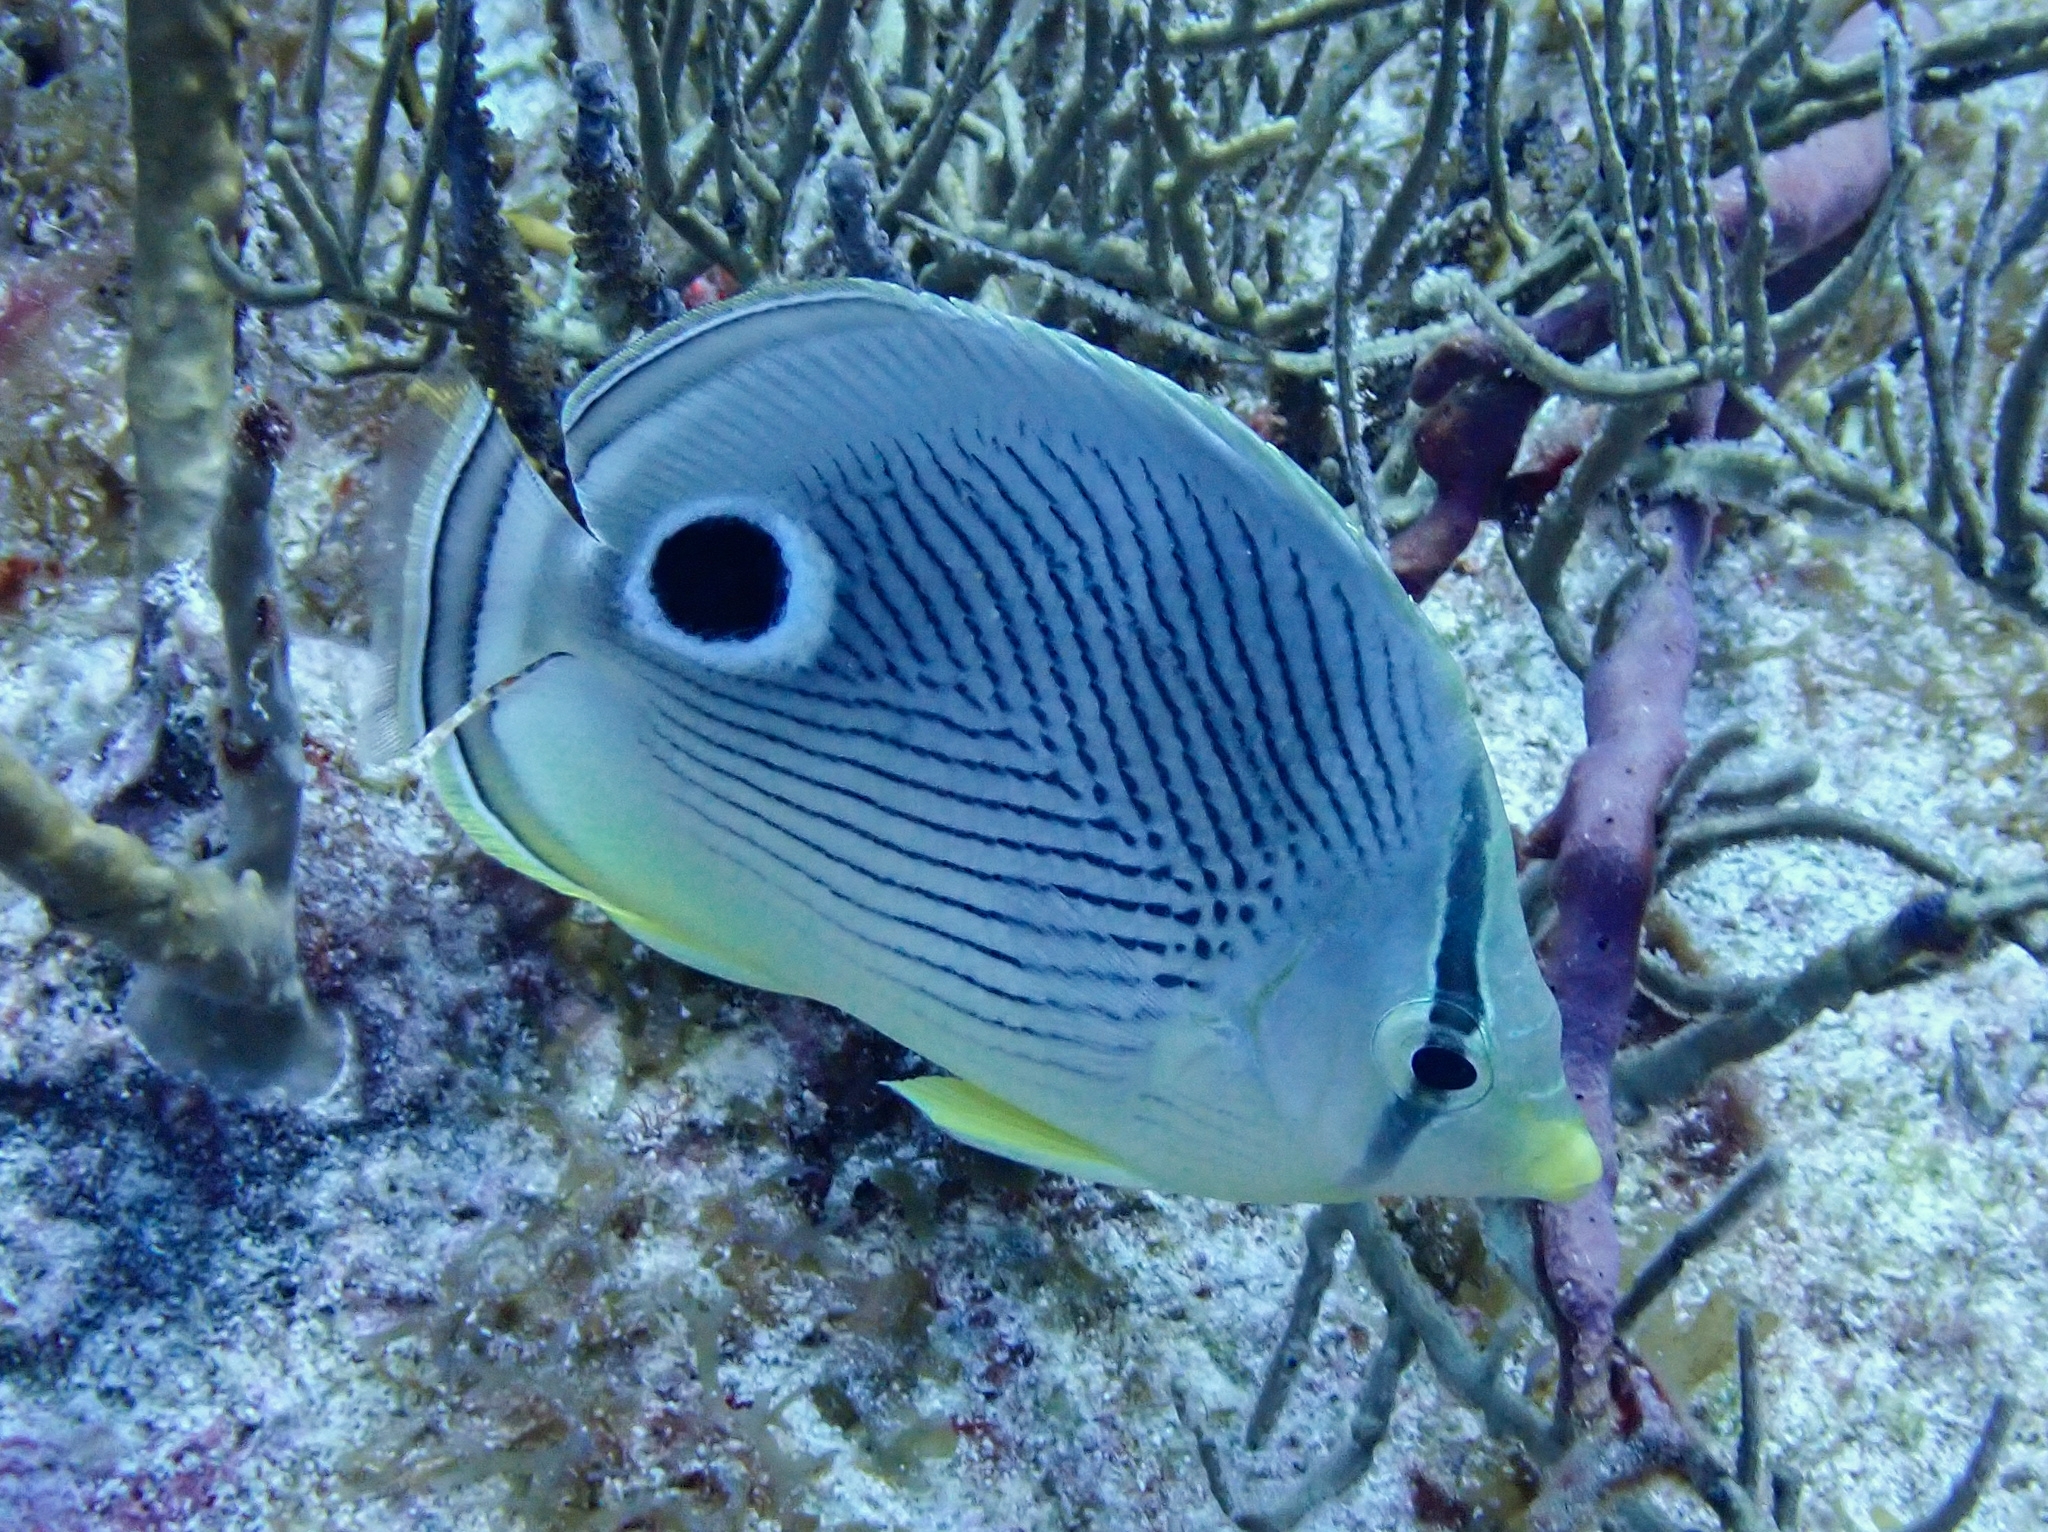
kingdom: Animalia
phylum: Chordata
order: Perciformes
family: Chaetodontidae
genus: Chaetodon
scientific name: Chaetodon capistratus
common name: Kete
